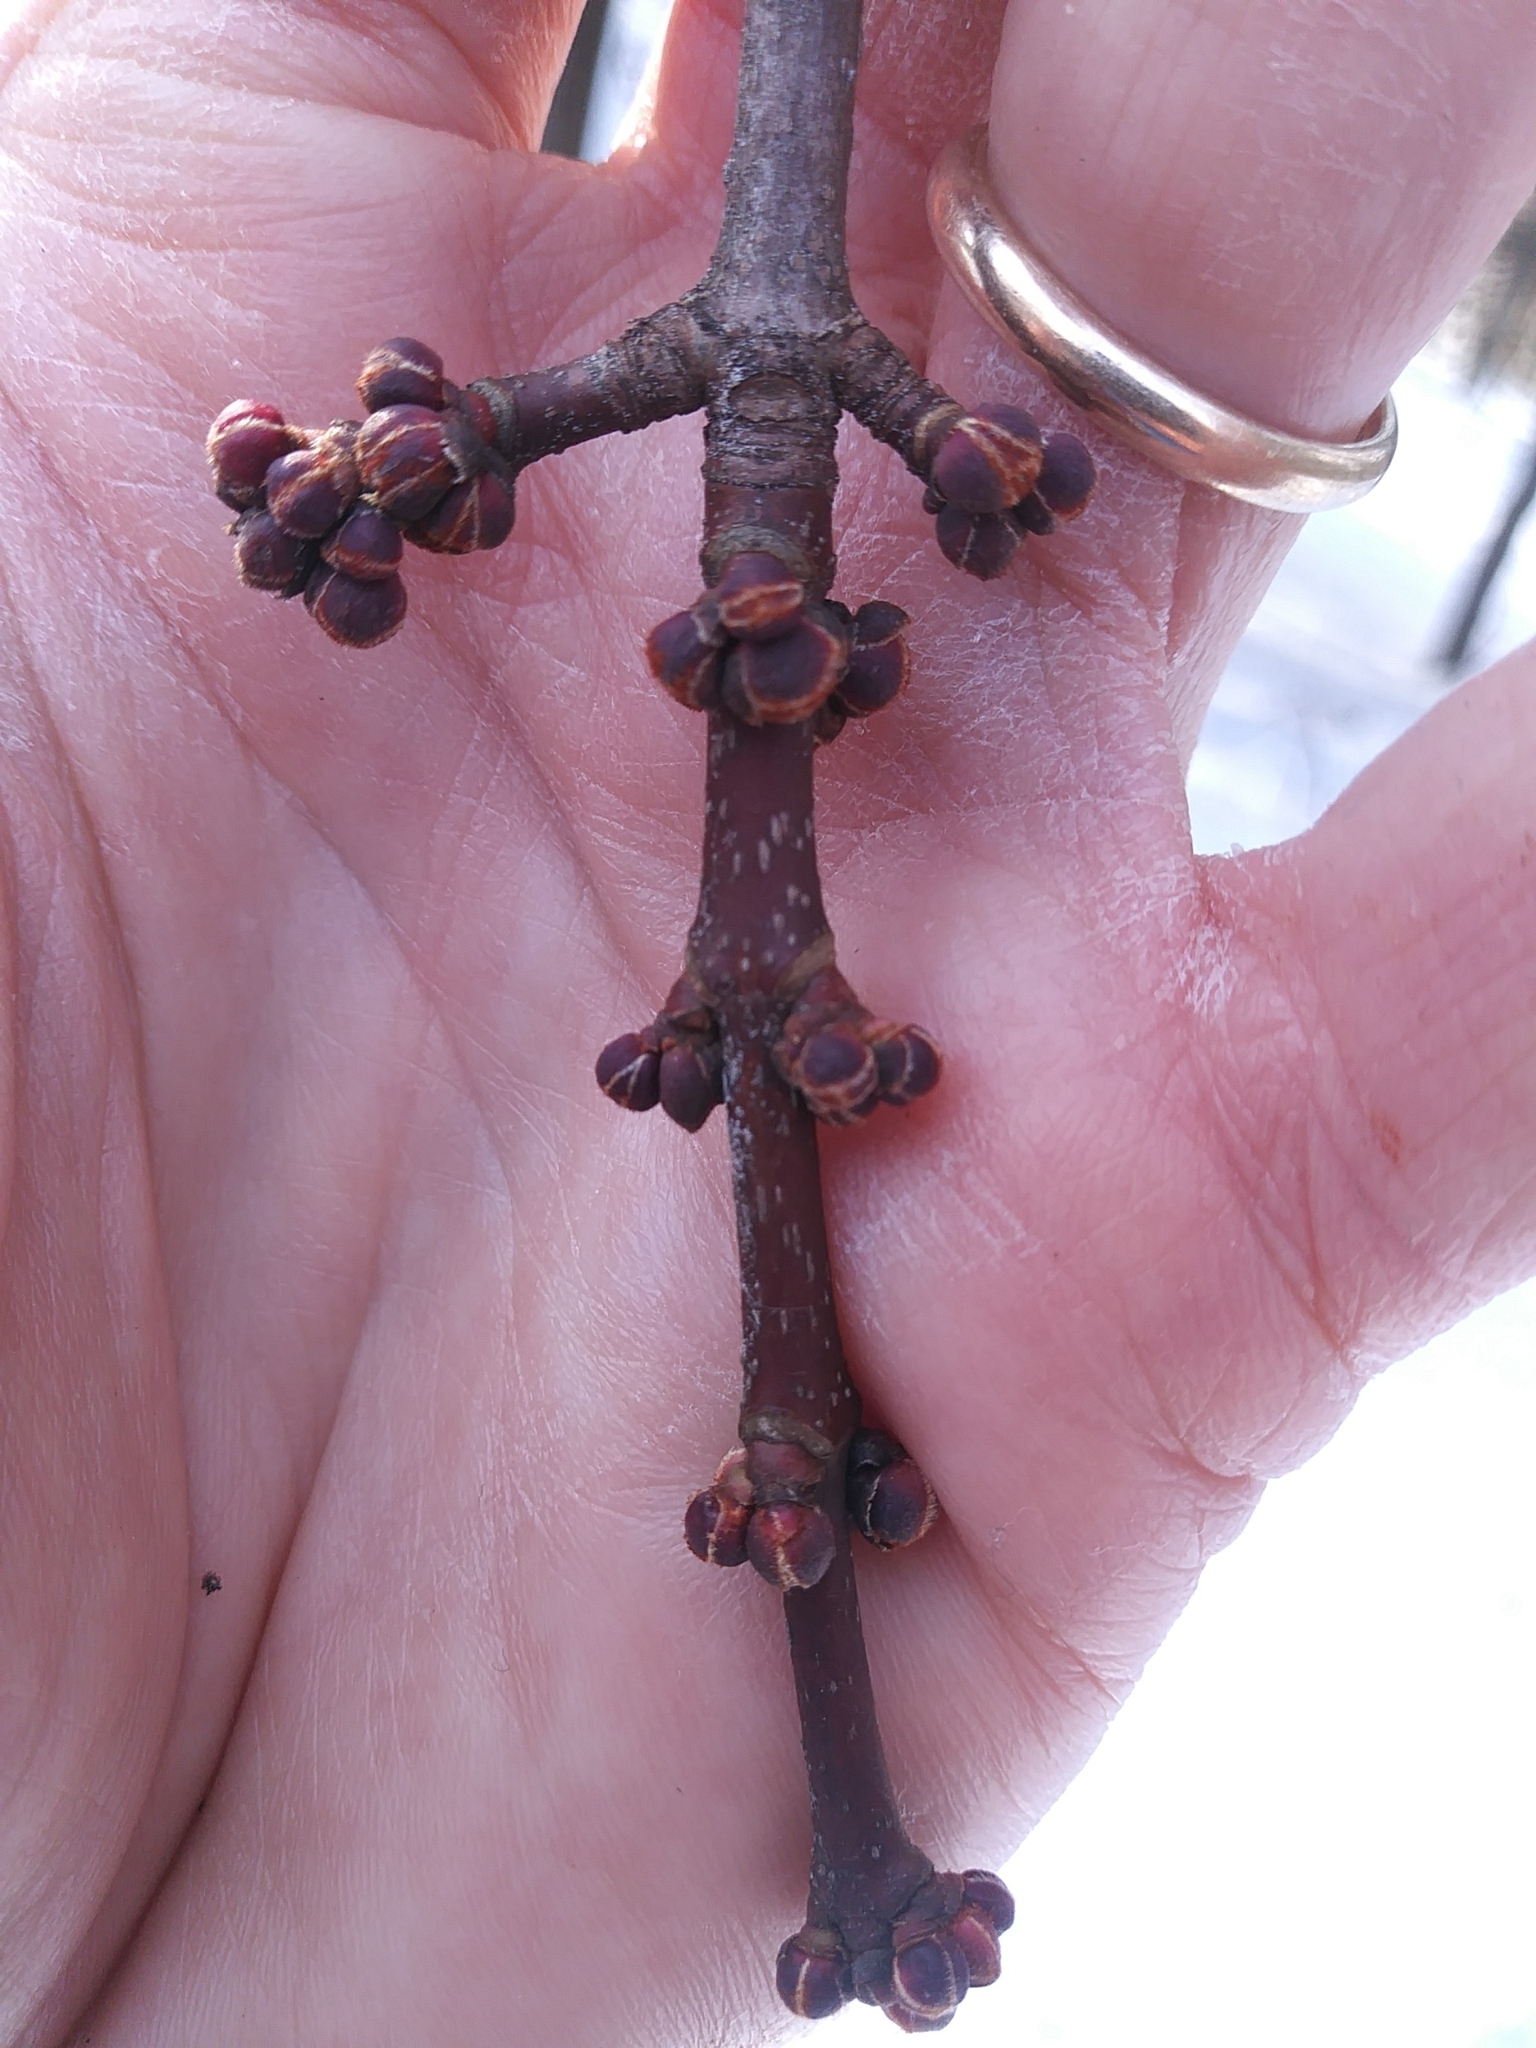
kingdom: Plantae
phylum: Tracheophyta
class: Magnoliopsida
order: Sapindales
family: Sapindaceae
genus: Acer
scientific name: Acer rubrum
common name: Red maple
